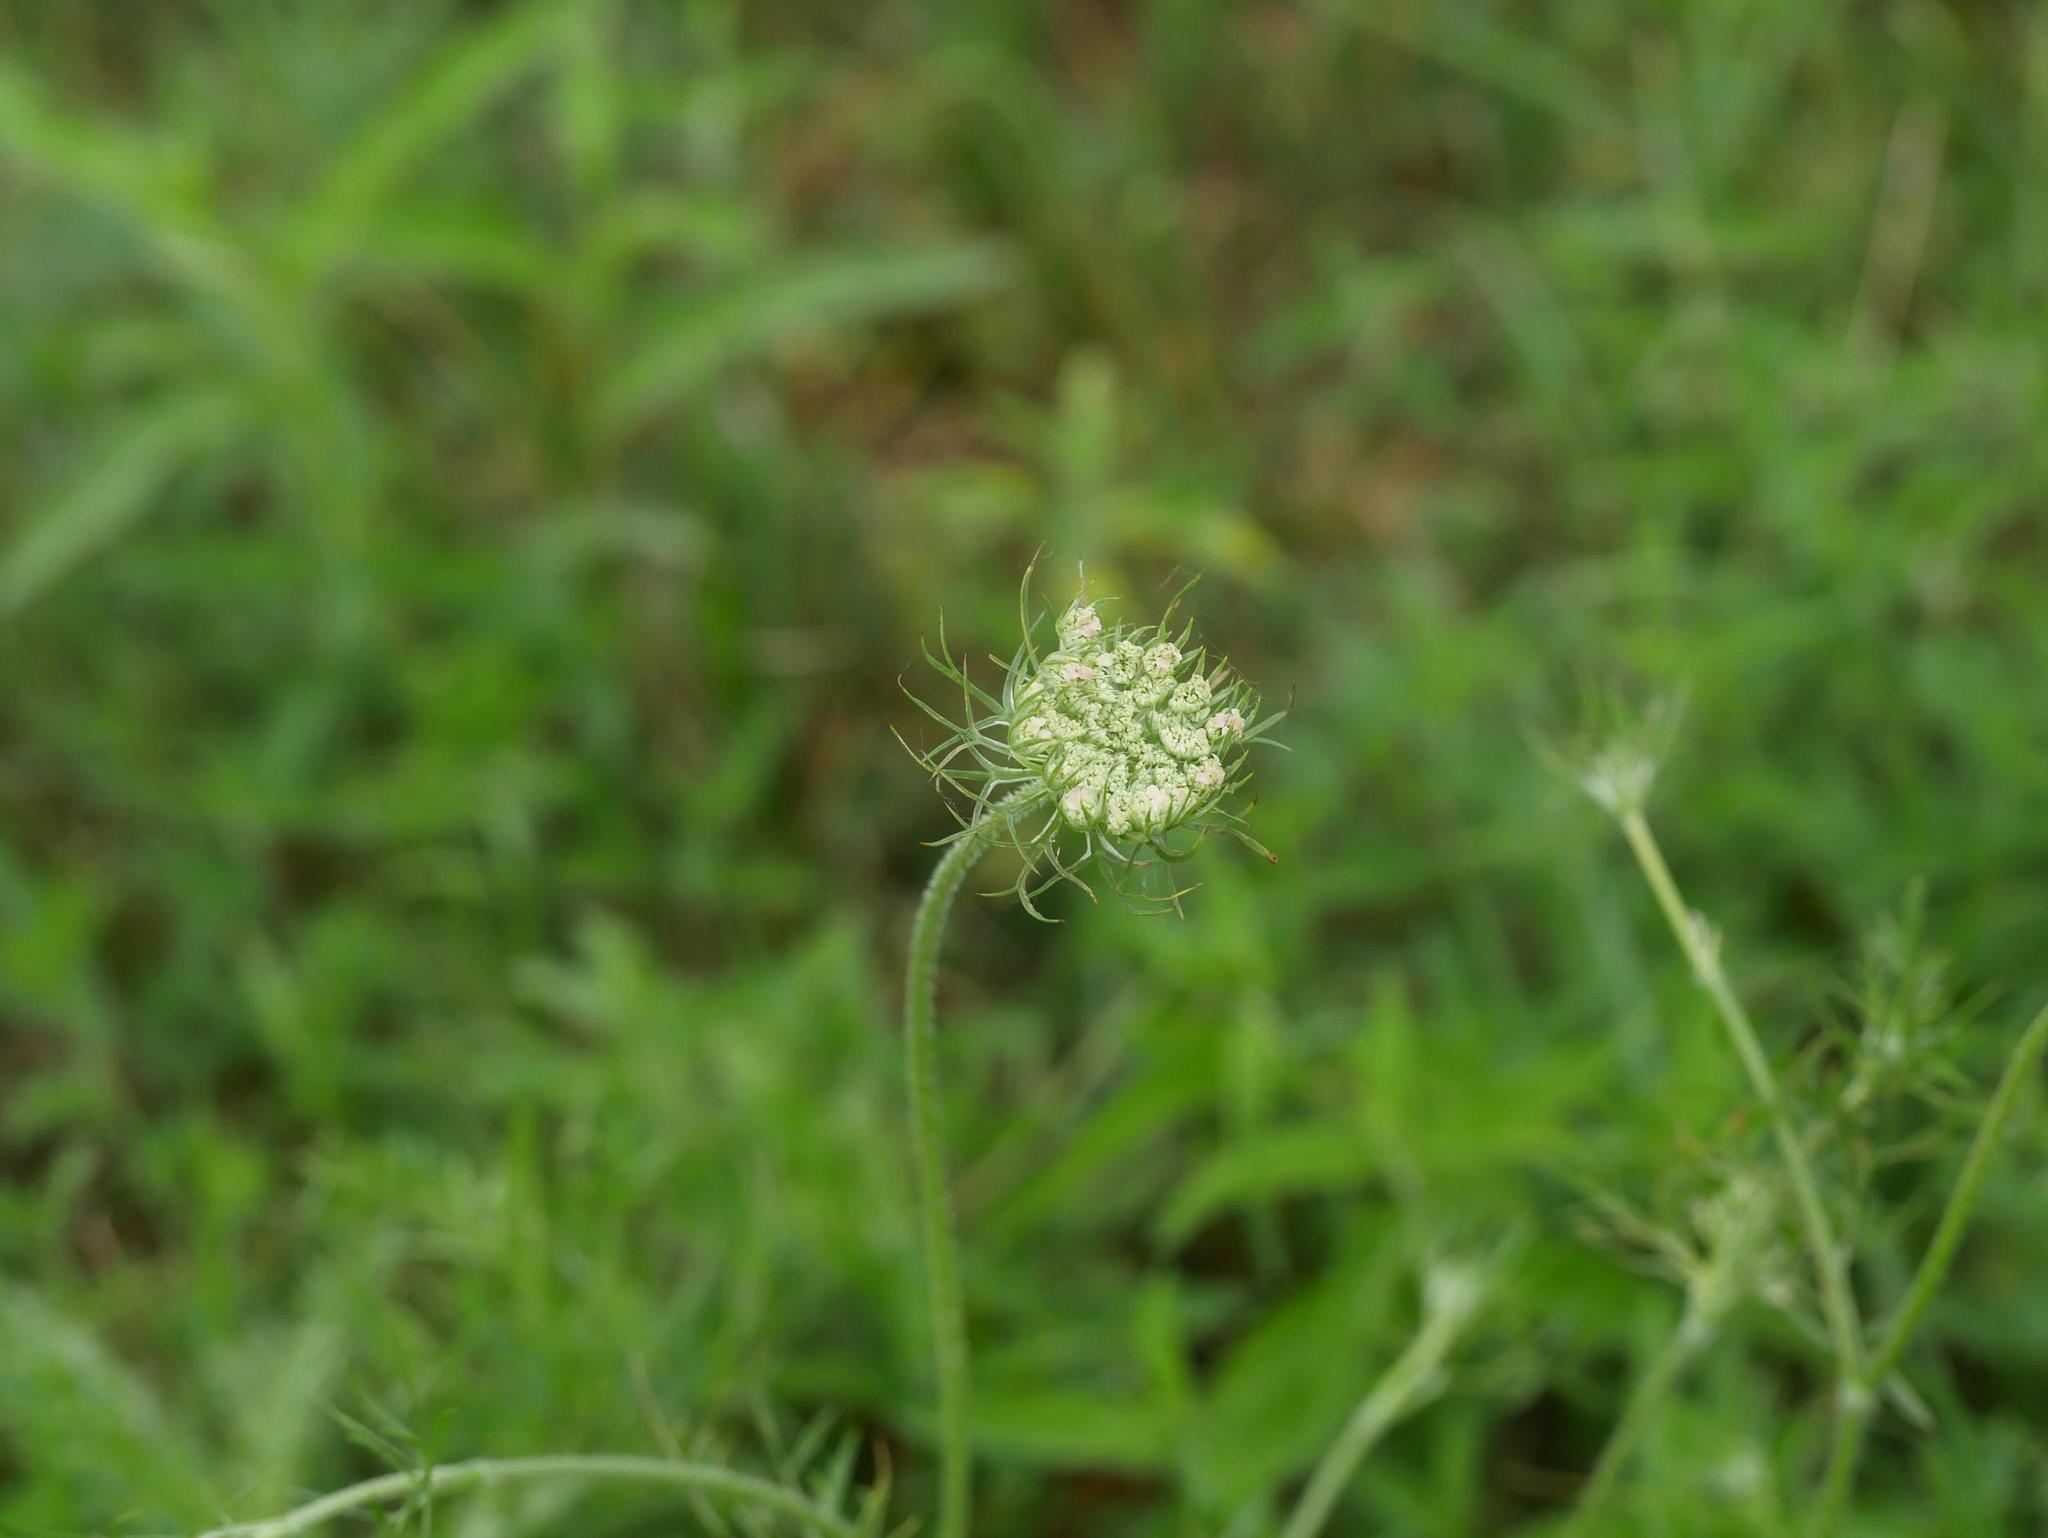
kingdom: Plantae
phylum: Tracheophyta
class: Magnoliopsida
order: Apiales
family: Apiaceae
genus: Daucus
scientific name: Daucus carota
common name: Wild carrot
